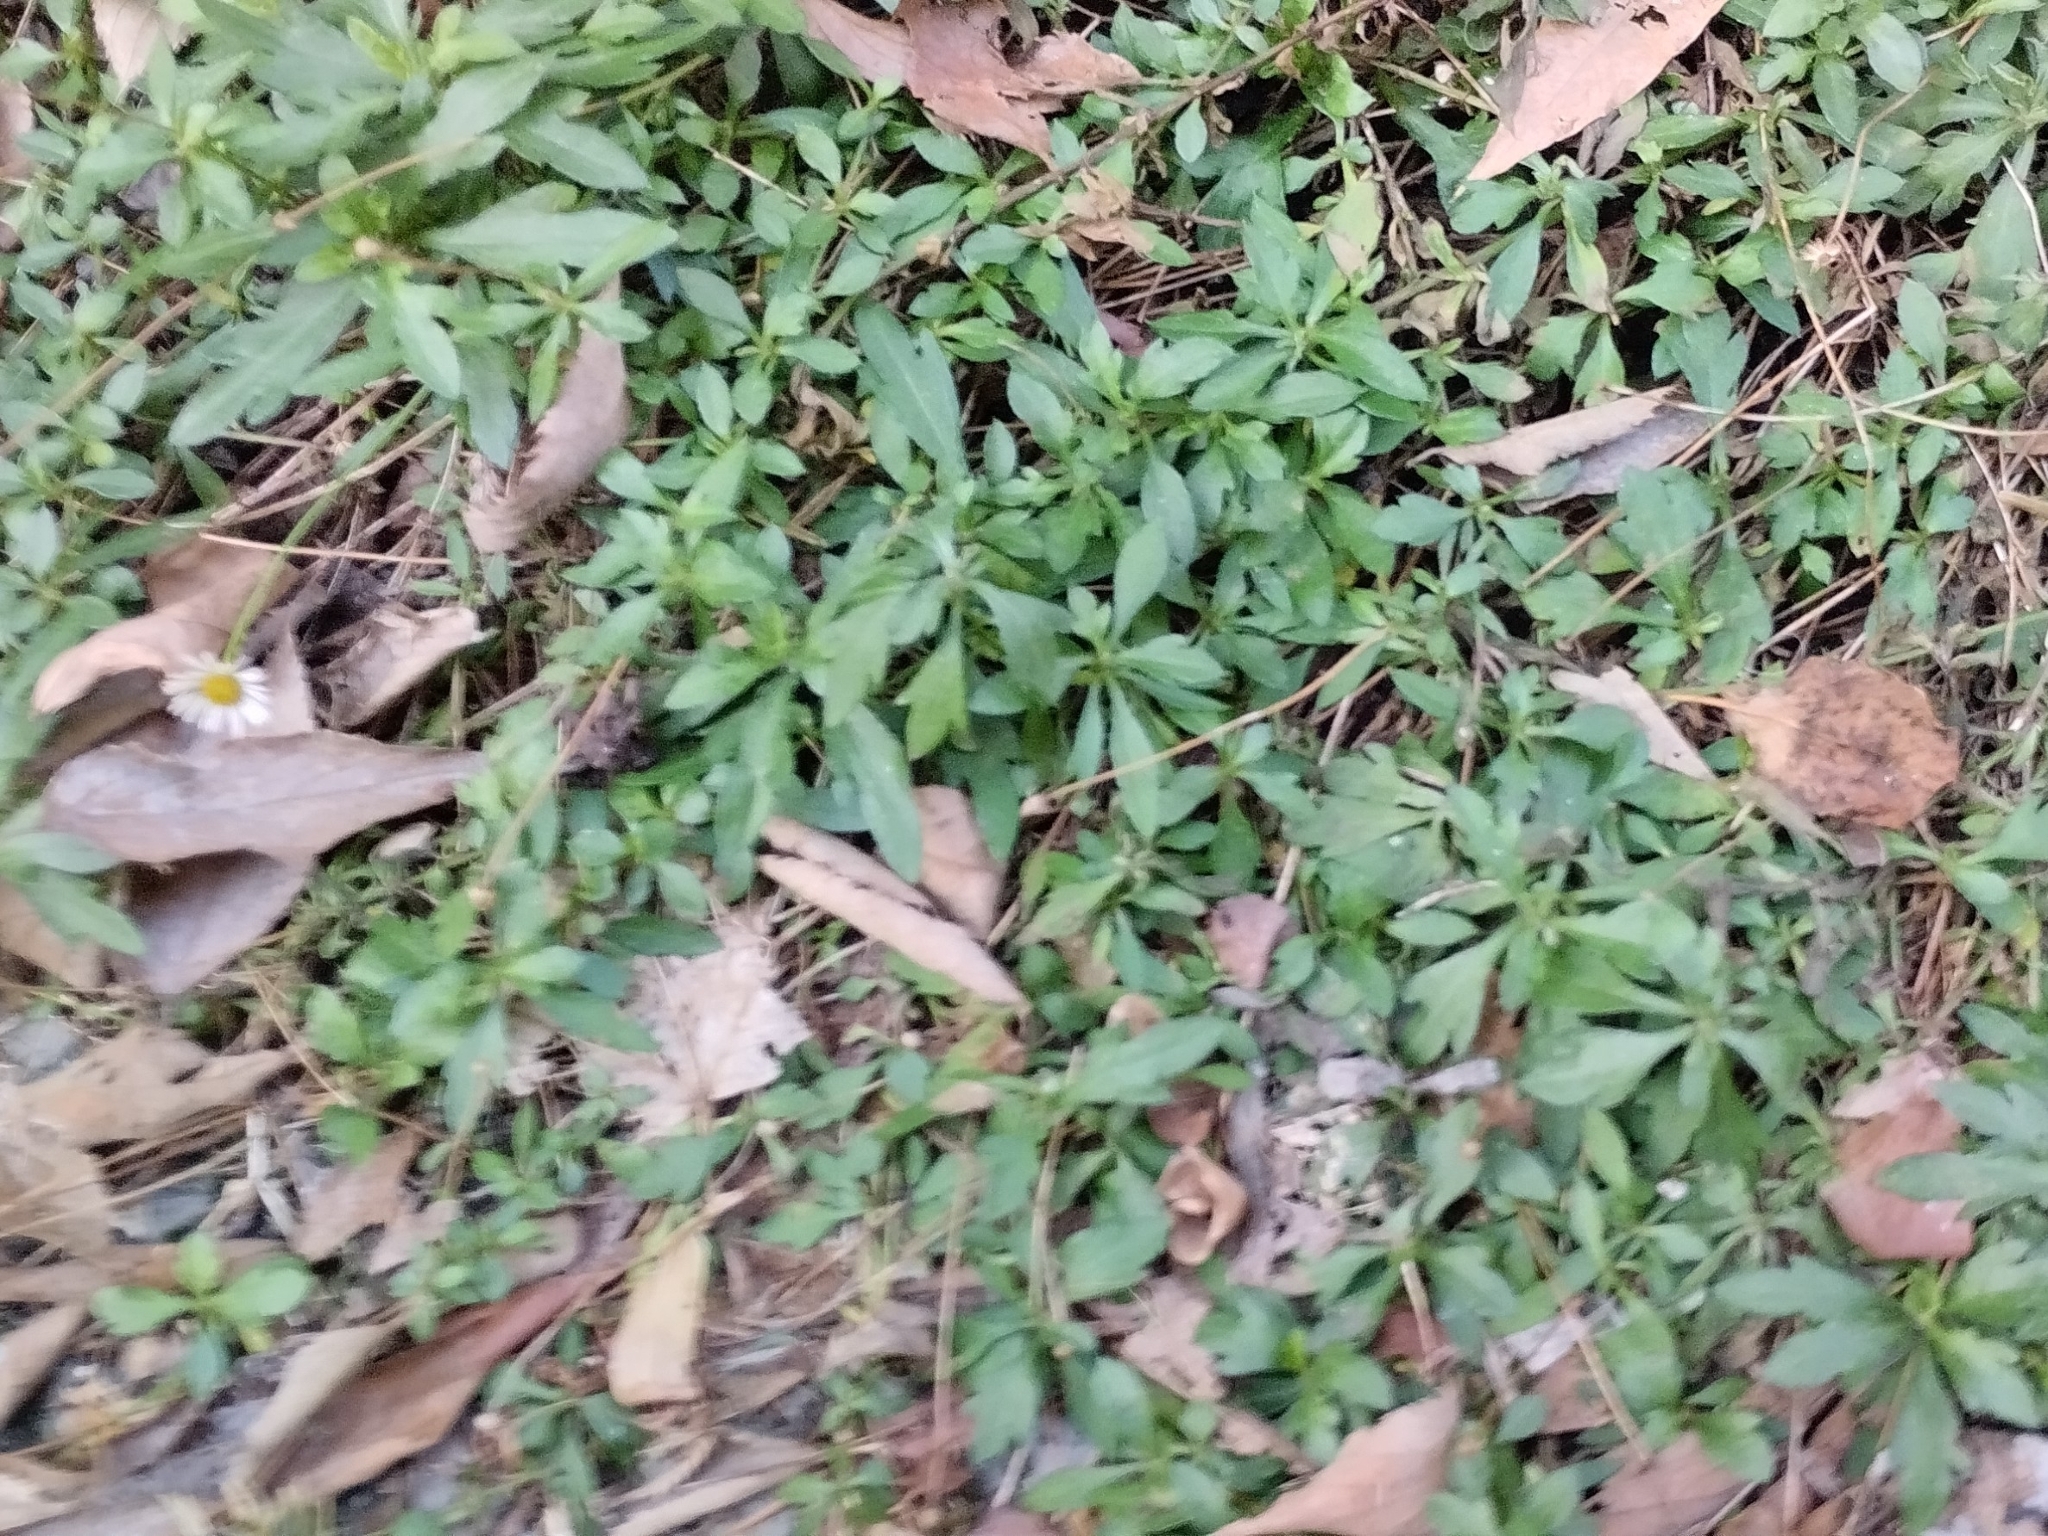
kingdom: Plantae
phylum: Tracheophyta
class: Magnoliopsida
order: Asterales
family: Asteraceae
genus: Erigeron
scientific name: Erigeron karvinskianus
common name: Mexican fleabane
